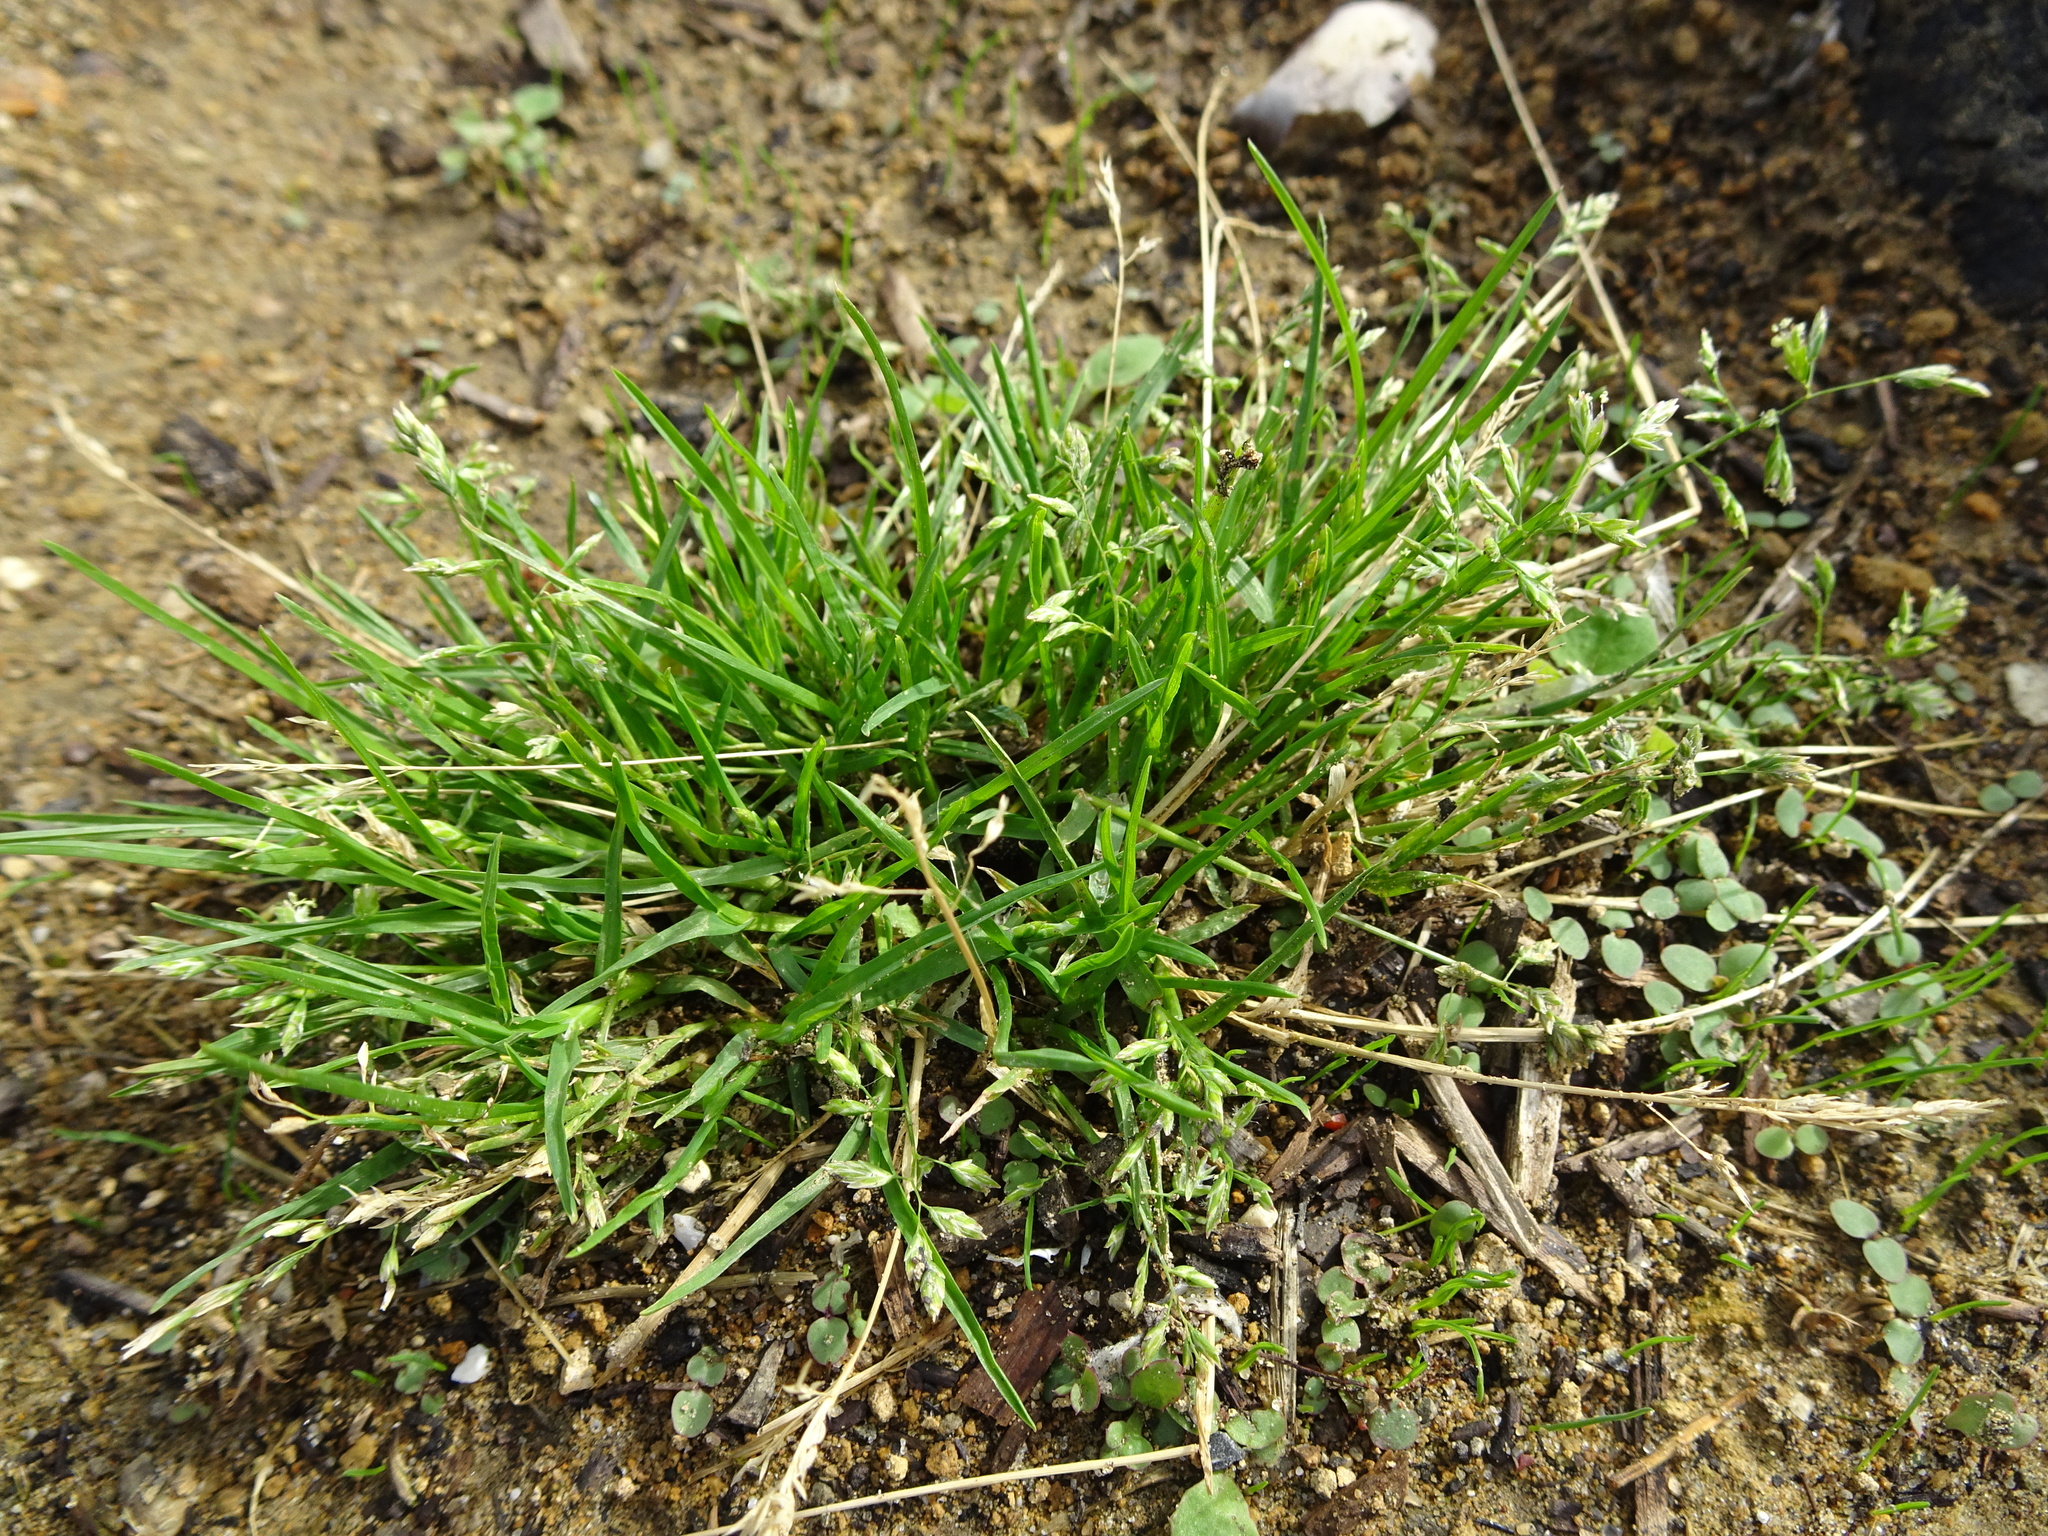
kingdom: Plantae
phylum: Tracheophyta
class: Liliopsida
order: Poales
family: Poaceae
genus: Poa
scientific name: Poa annua
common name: Annual bluegrass
